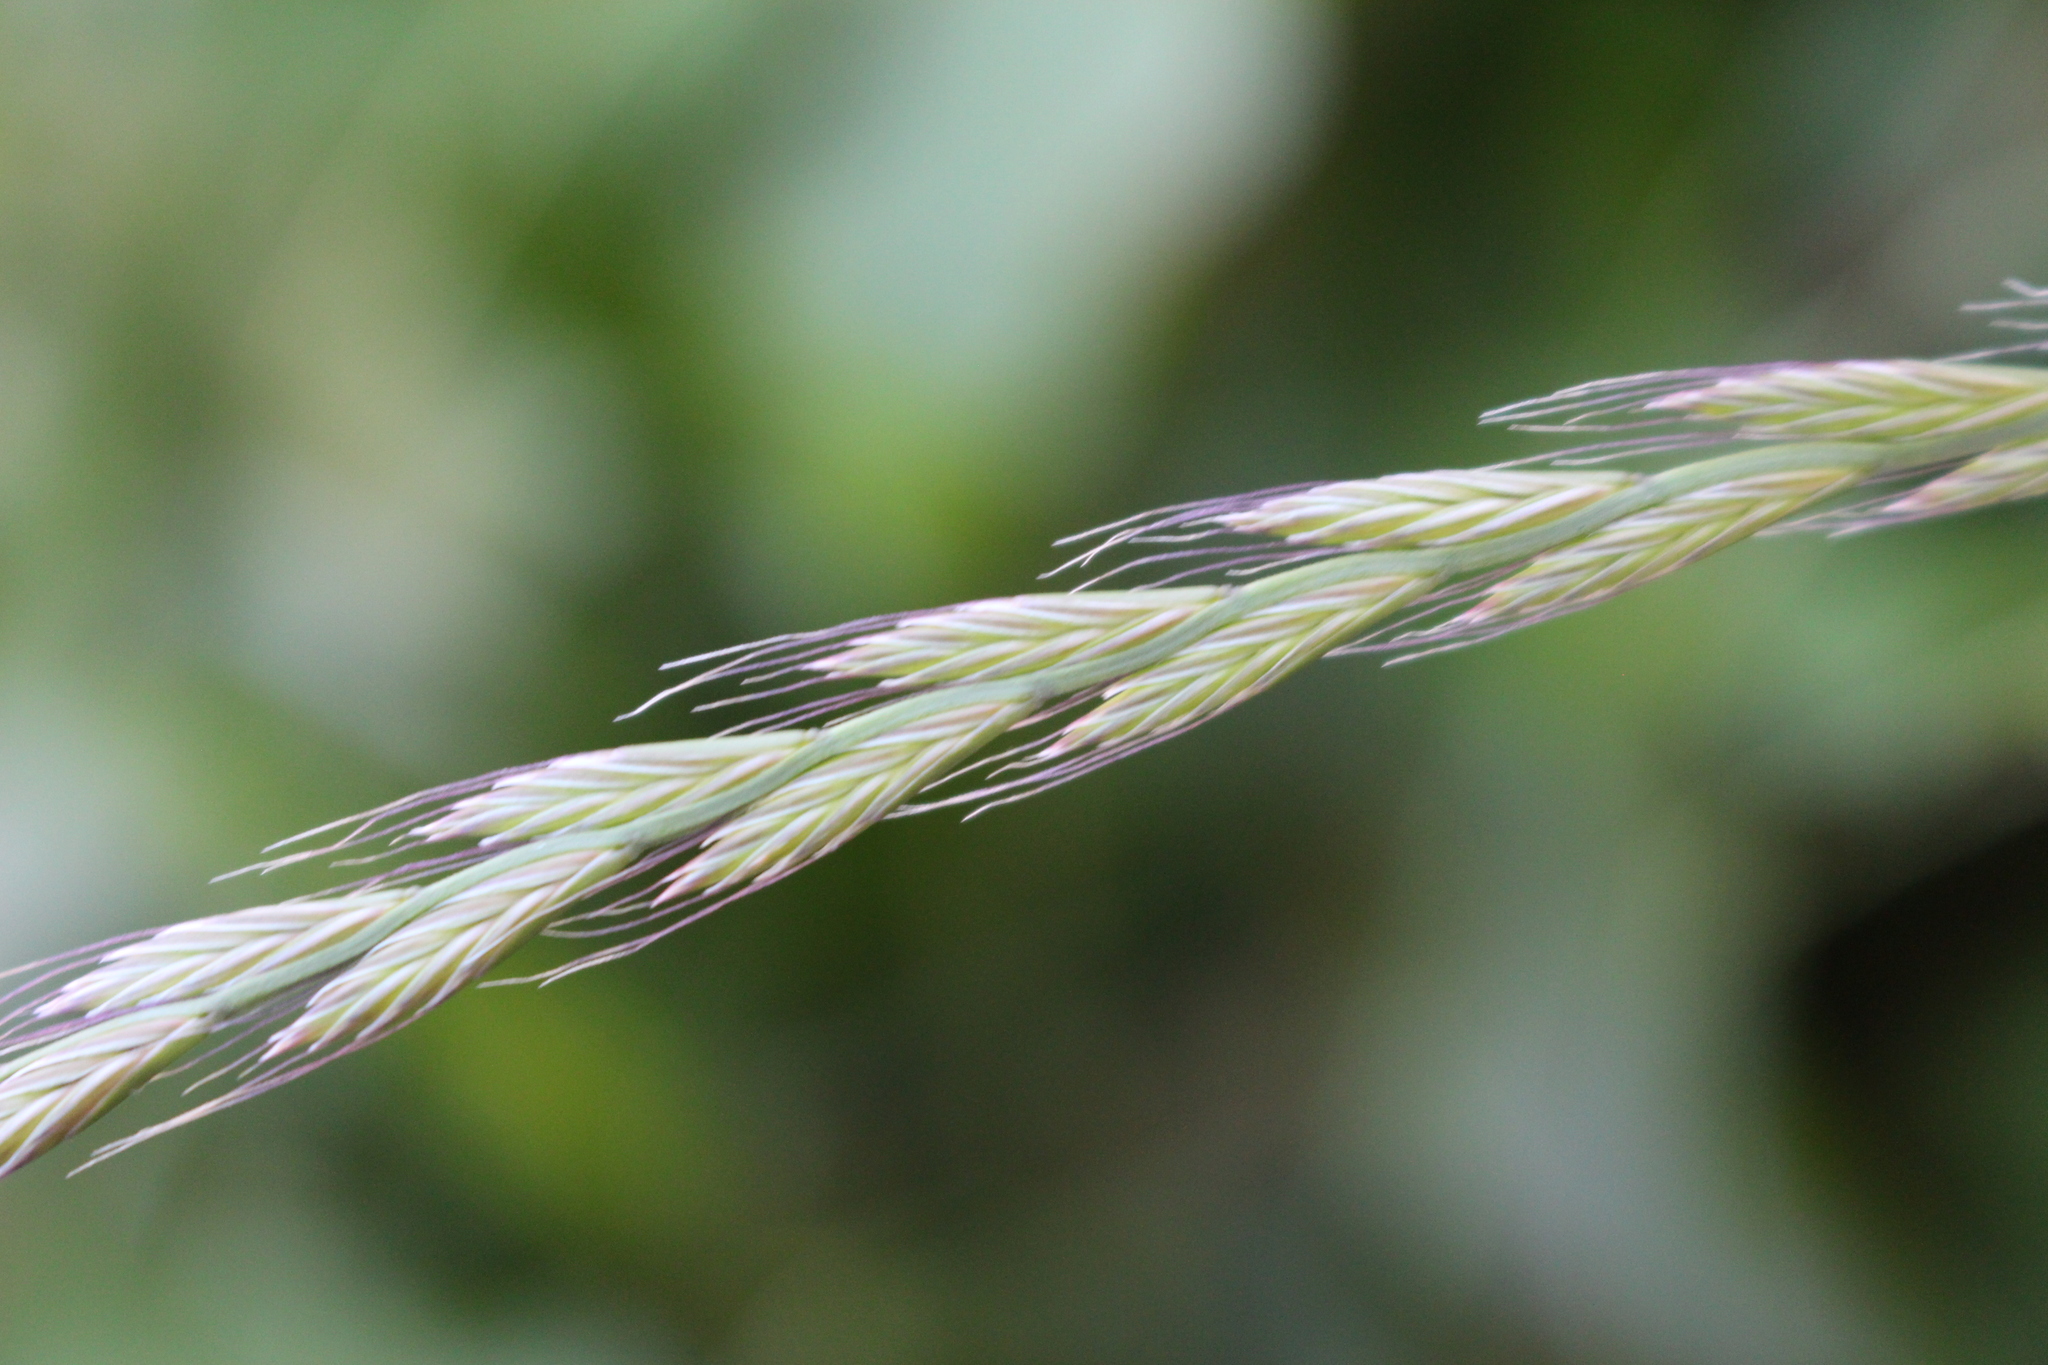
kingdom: Plantae
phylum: Tracheophyta
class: Liliopsida
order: Poales
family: Poaceae
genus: Lolium
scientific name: Lolium multiflorum
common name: Annual ryegrass
